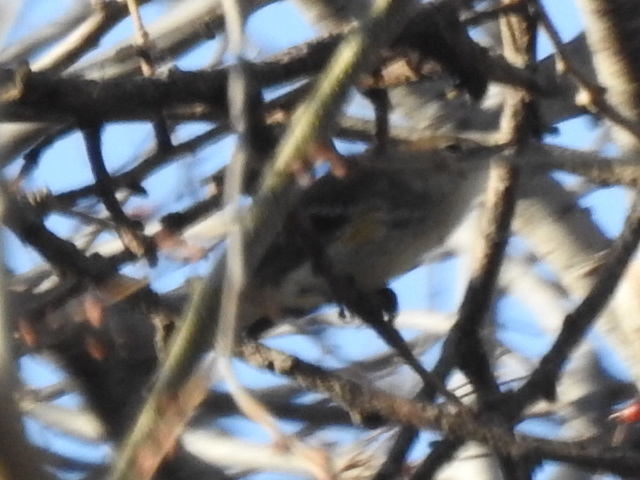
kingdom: Animalia
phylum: Chordata
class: Aves
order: Passeriformes
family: Parulidae
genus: Setophaga
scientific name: Setophaga coronata
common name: Myrtle warbler
